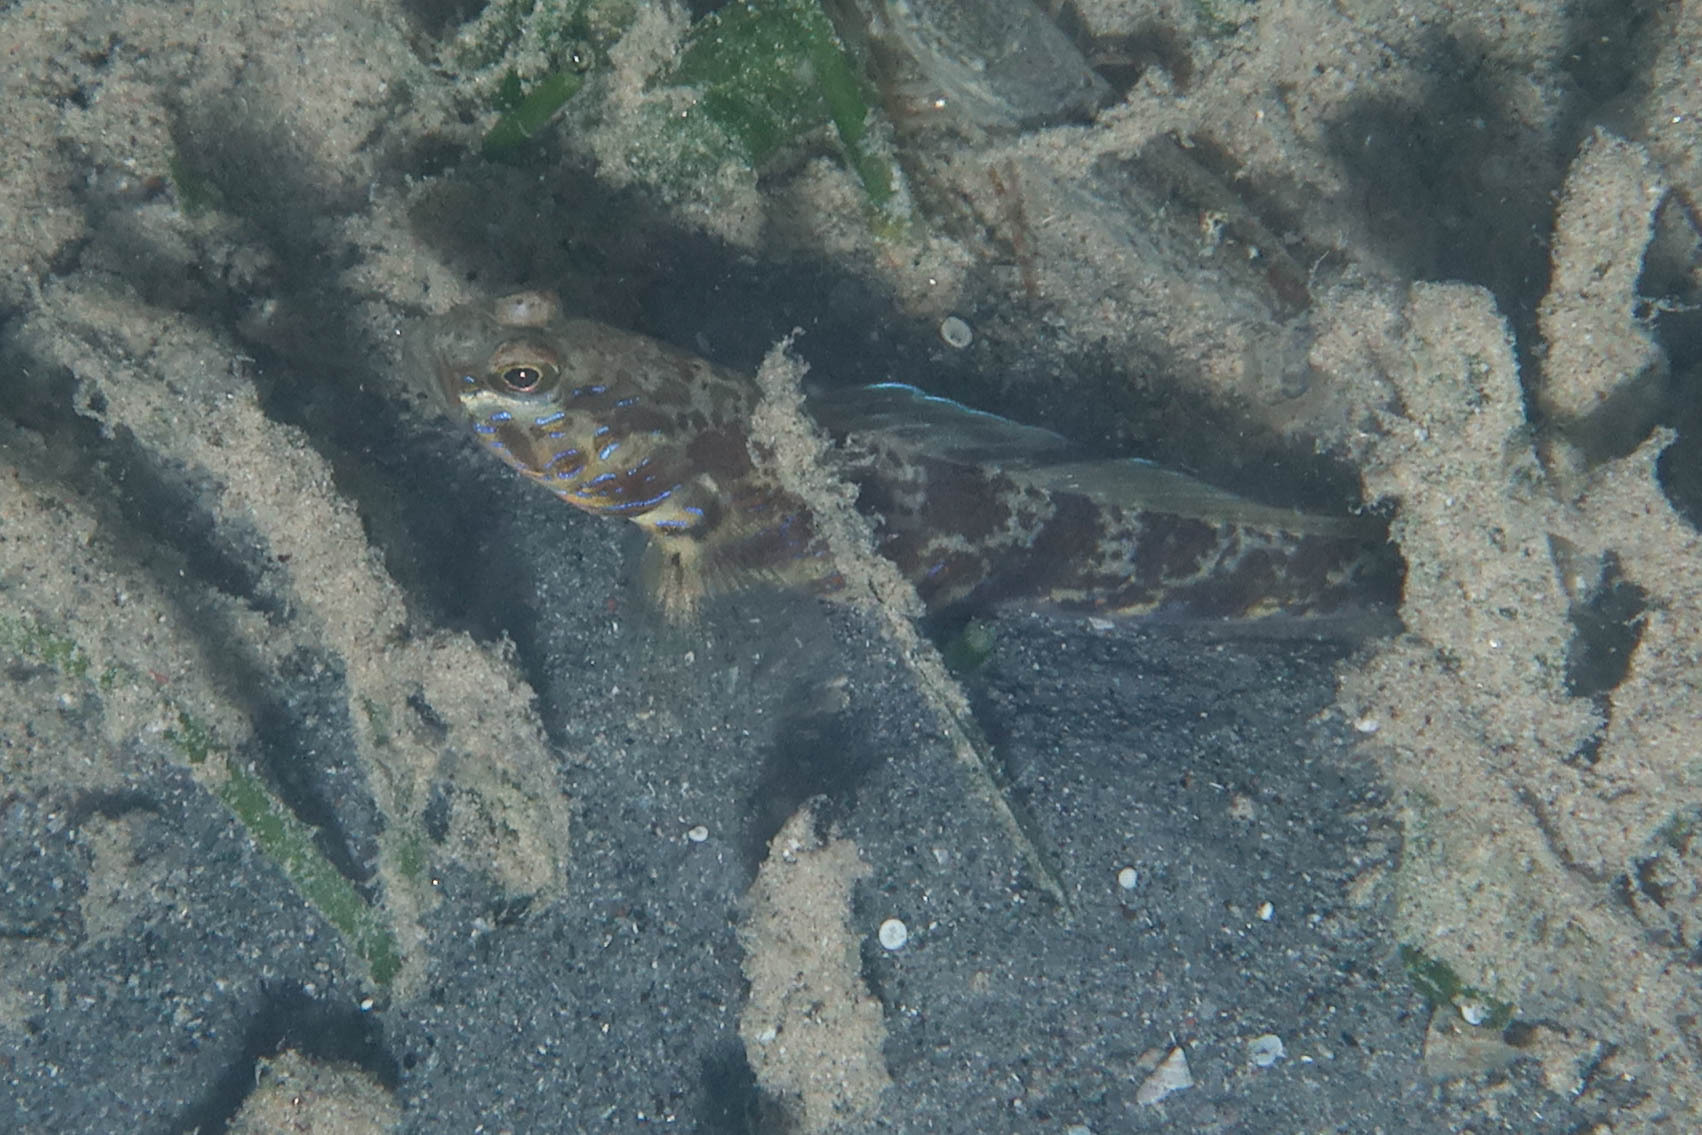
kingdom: Animalia
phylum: Chordata
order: Perciformes
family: Gobiidae
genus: Vanderhorstia
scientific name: Vanderhorstia delagoae
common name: Candystick goby
